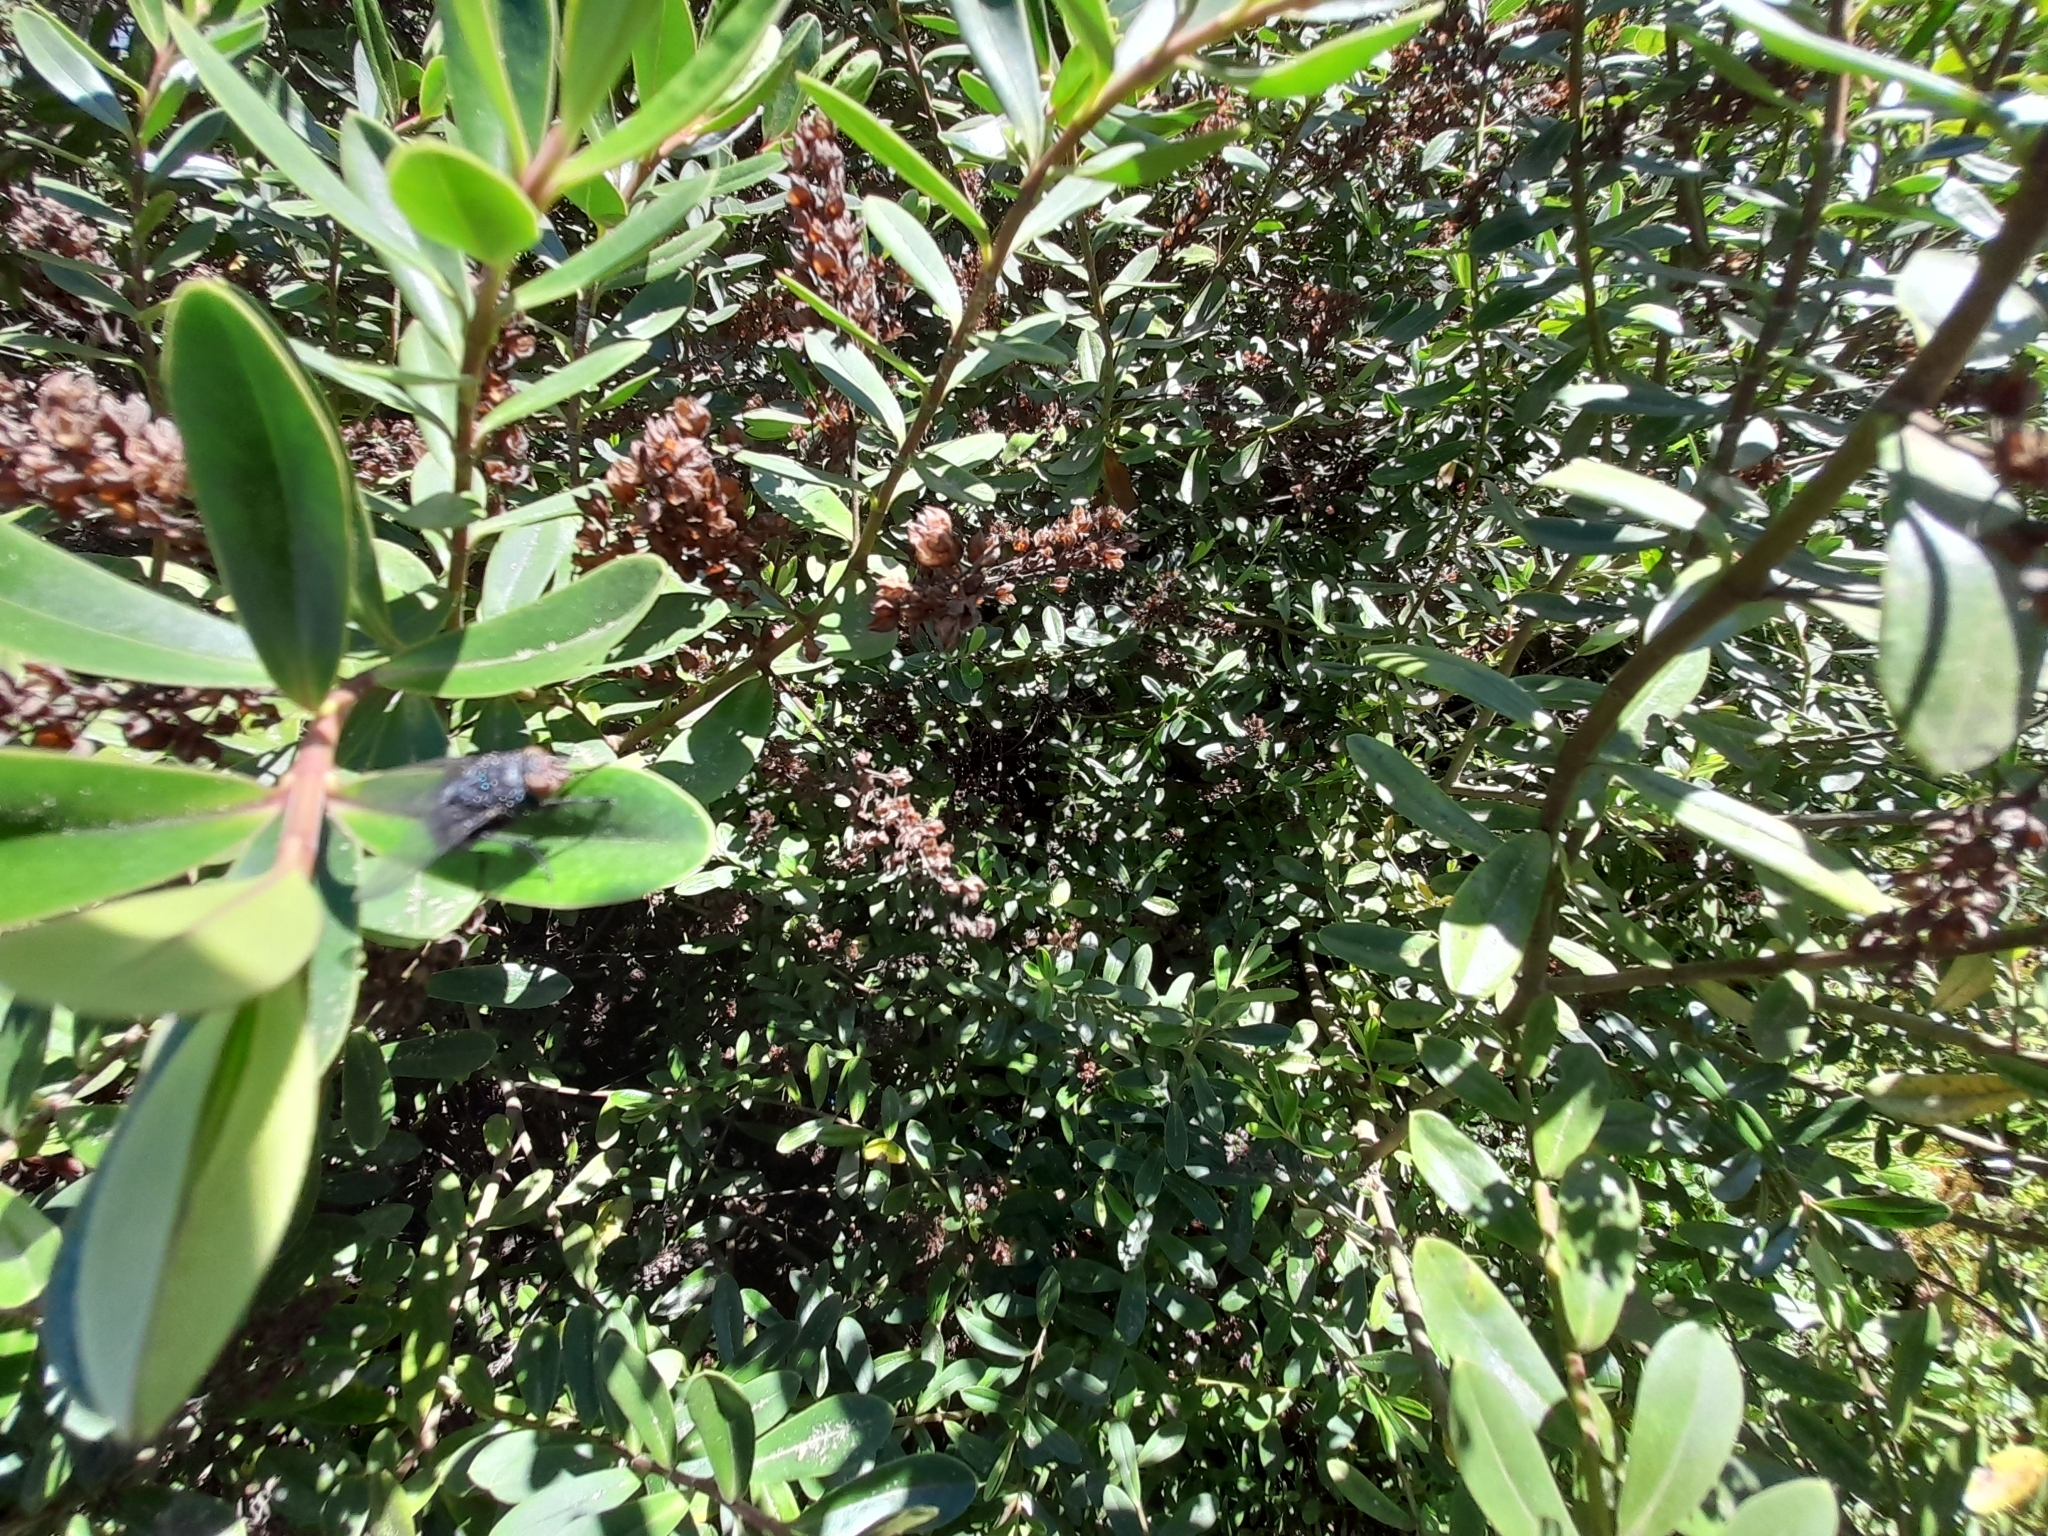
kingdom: Animalia
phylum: Arthropoda
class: Insecta
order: Diptera
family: Calliphoridae
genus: Calliphora
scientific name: Calliphora vicina
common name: Common blow flie
